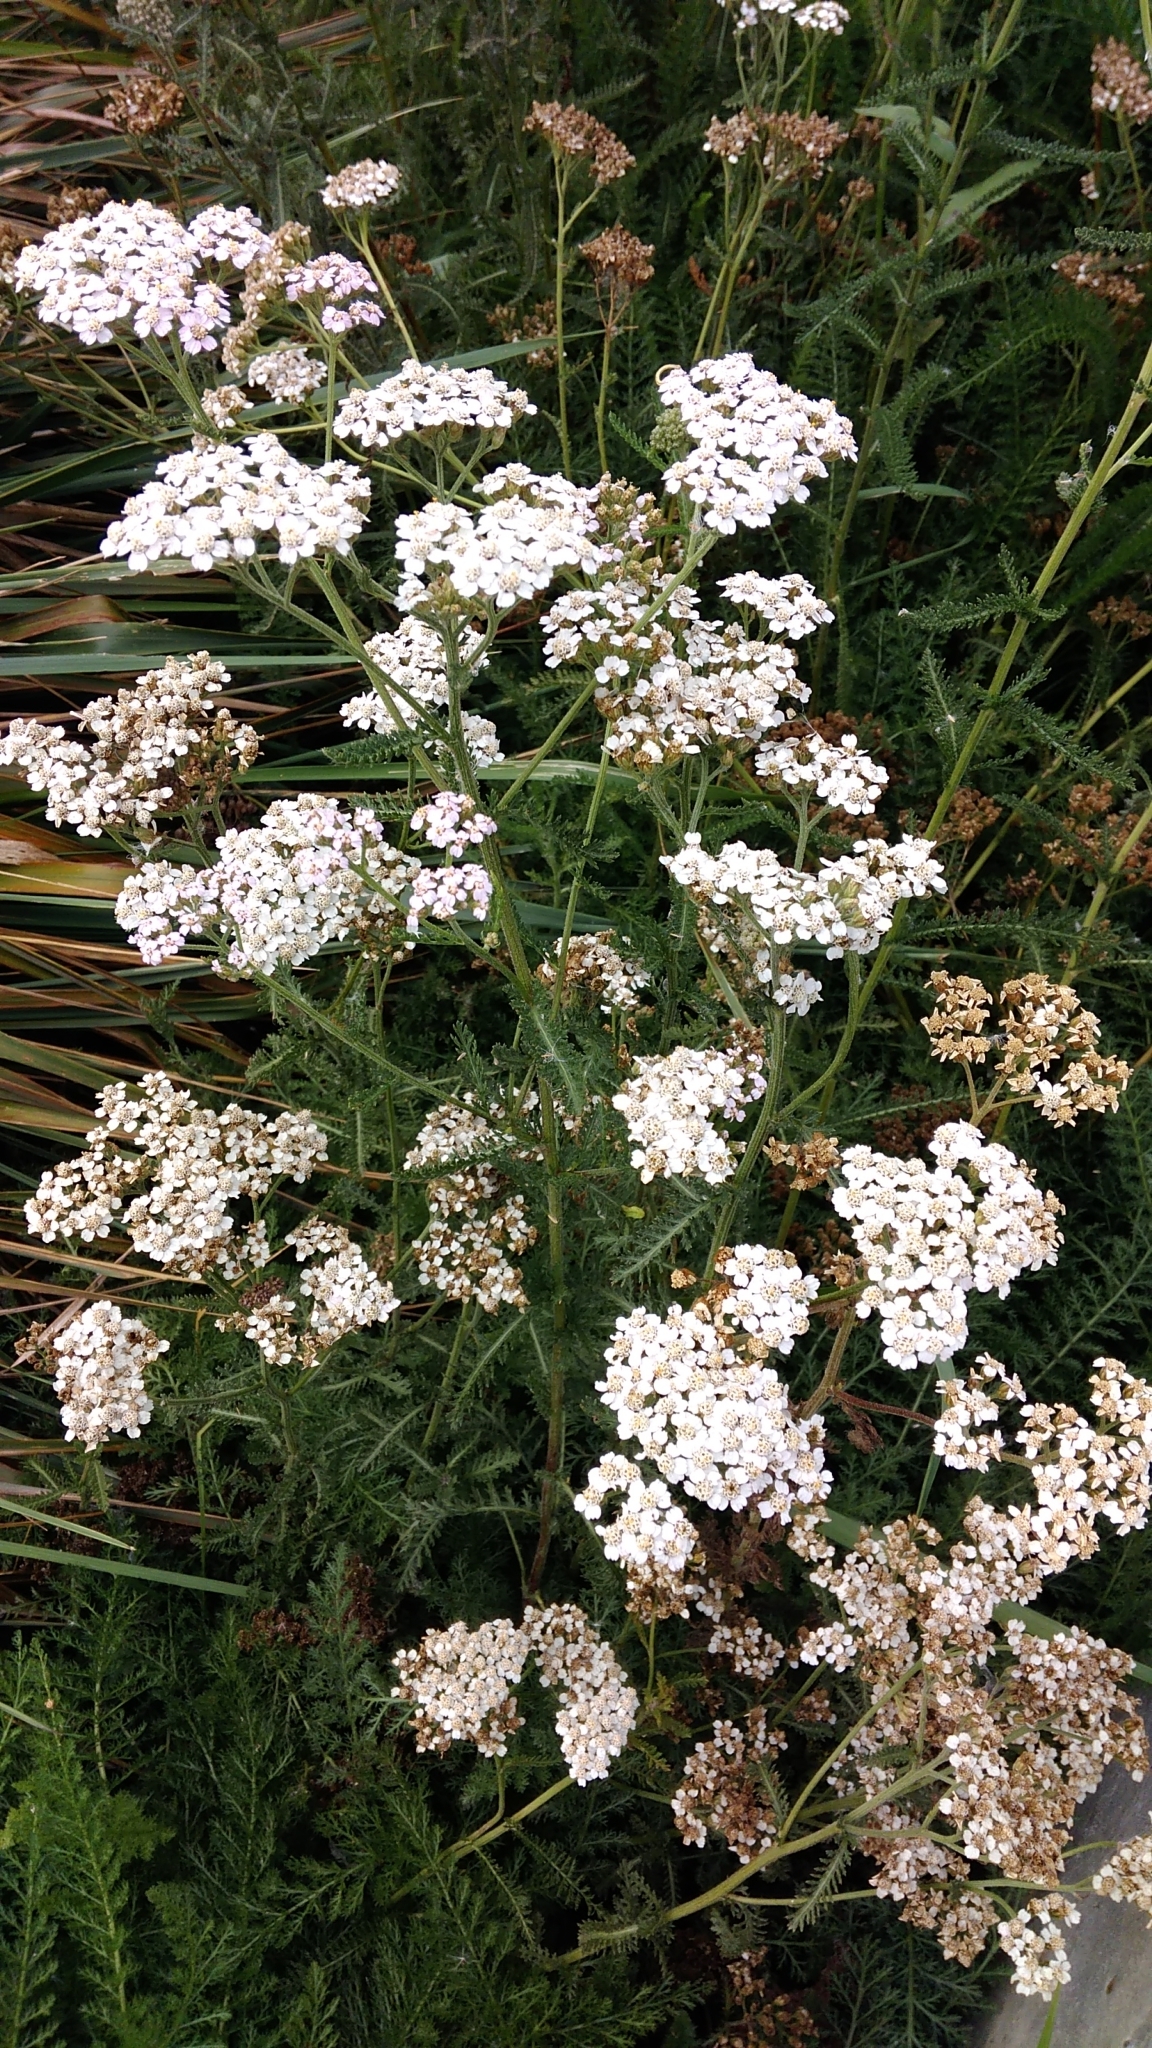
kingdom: Plantae
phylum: Tracheophyta
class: Magnoliopsida
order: Asterales
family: Asteraceae
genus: Achillea
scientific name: Achillea millefolium
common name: Yarrow
